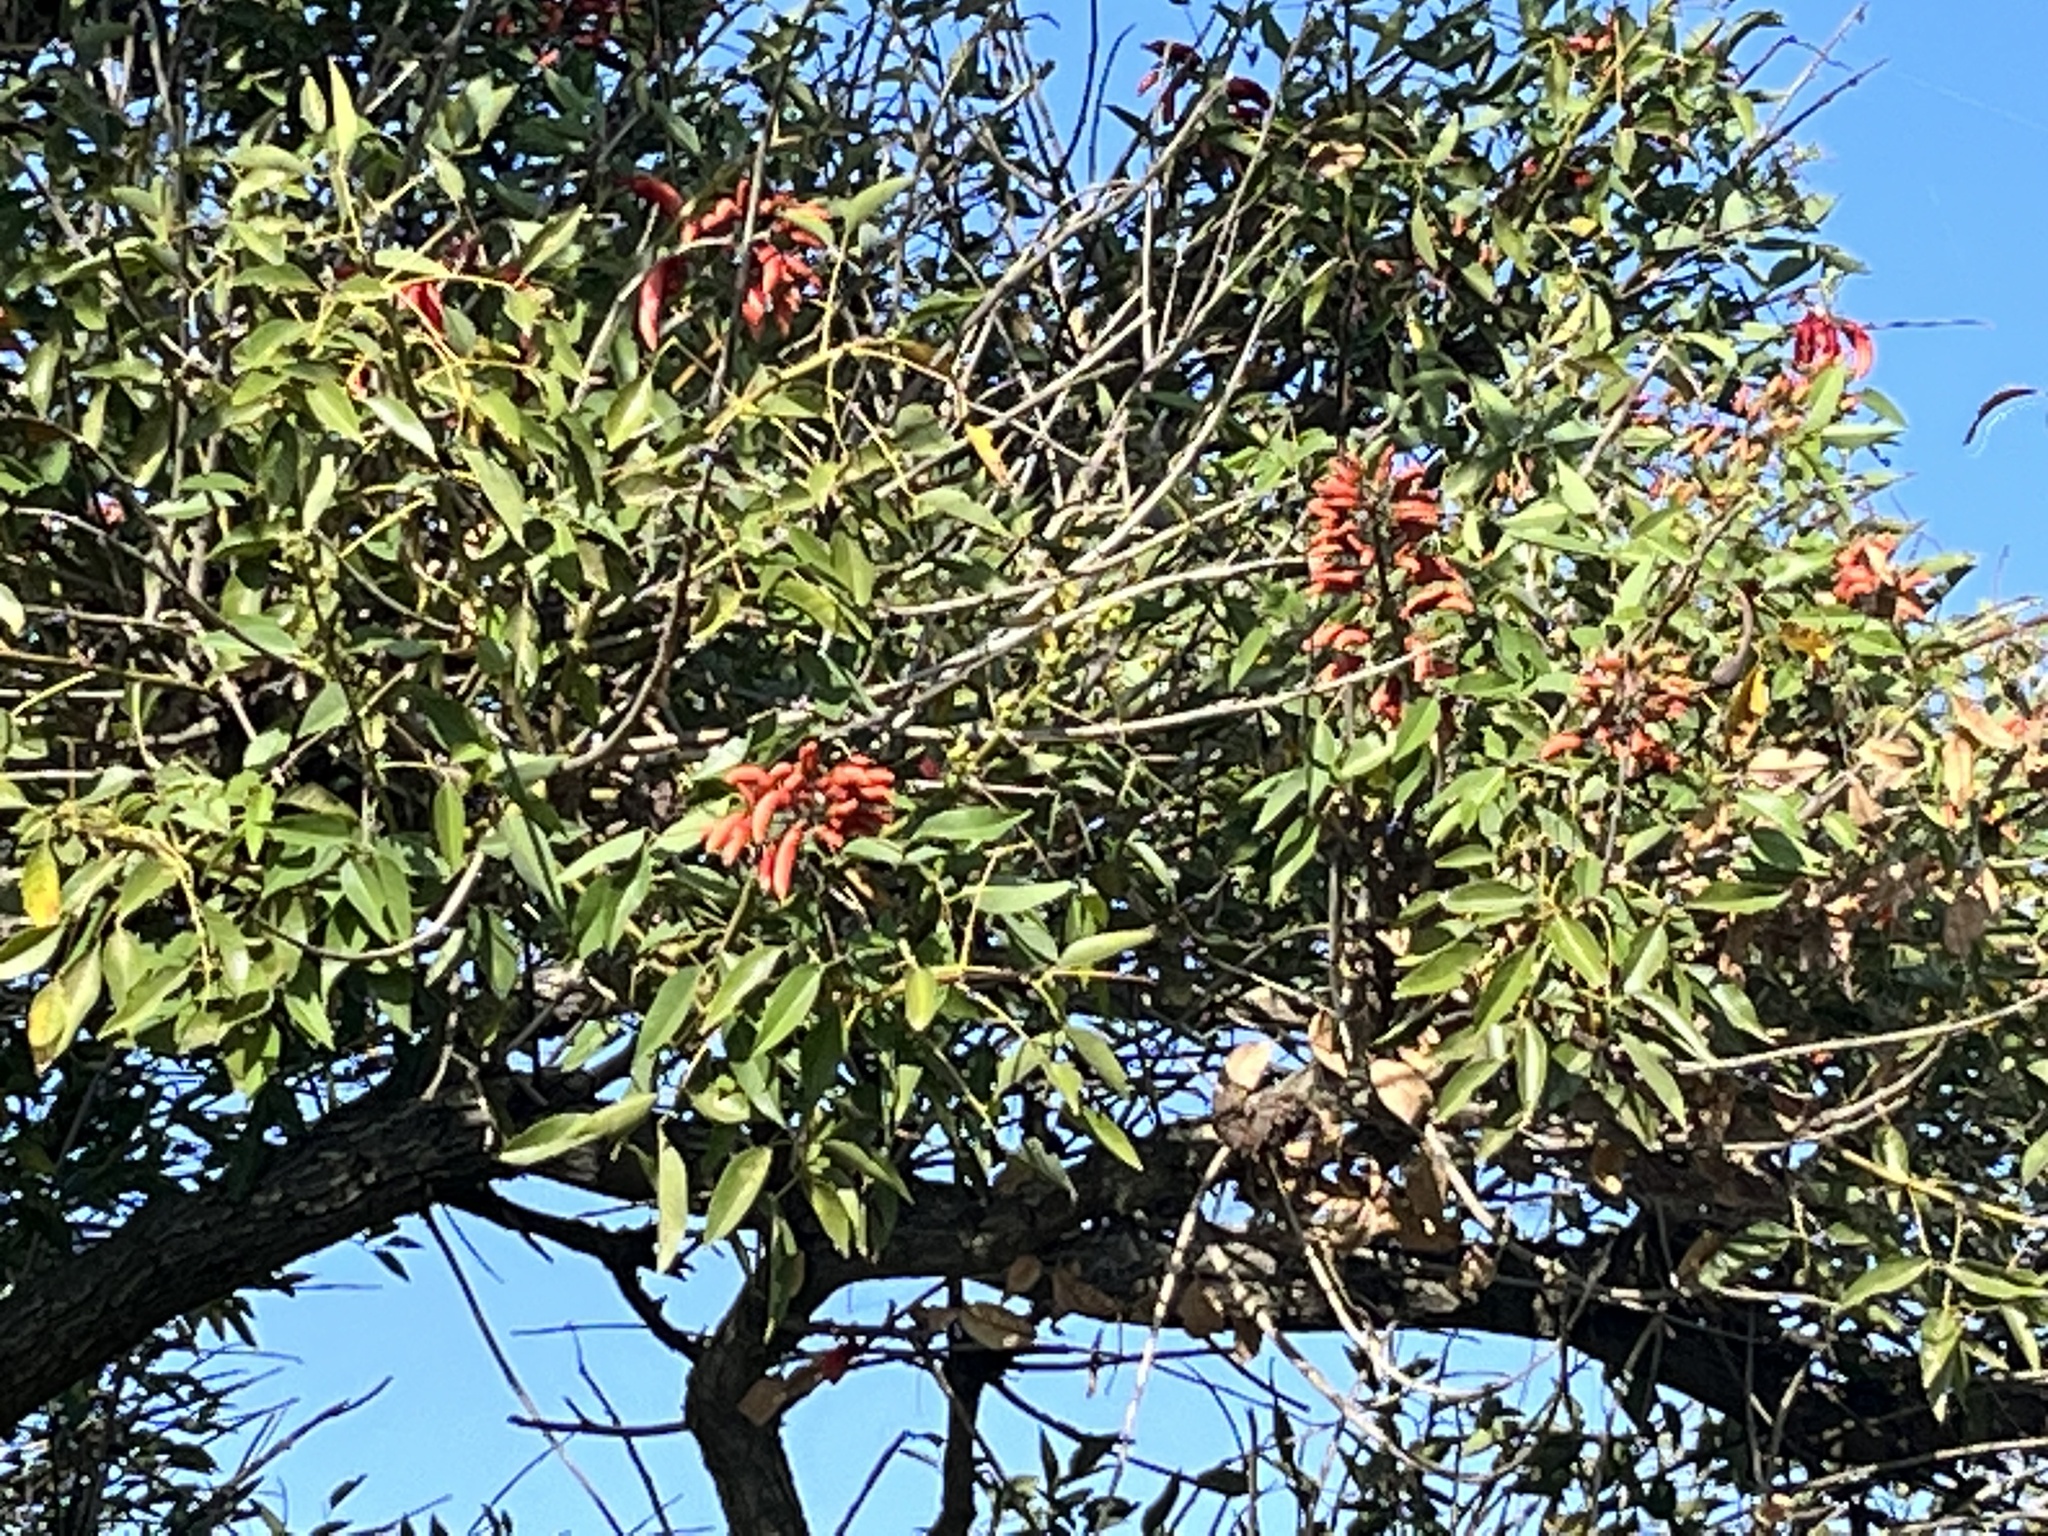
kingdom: Plantae
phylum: Tracheophyta
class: Magnoliopsida
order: Fabales
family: Fabaceae
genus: Erythrina
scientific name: Erythrina crista-galli
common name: Cockspur coral tree
